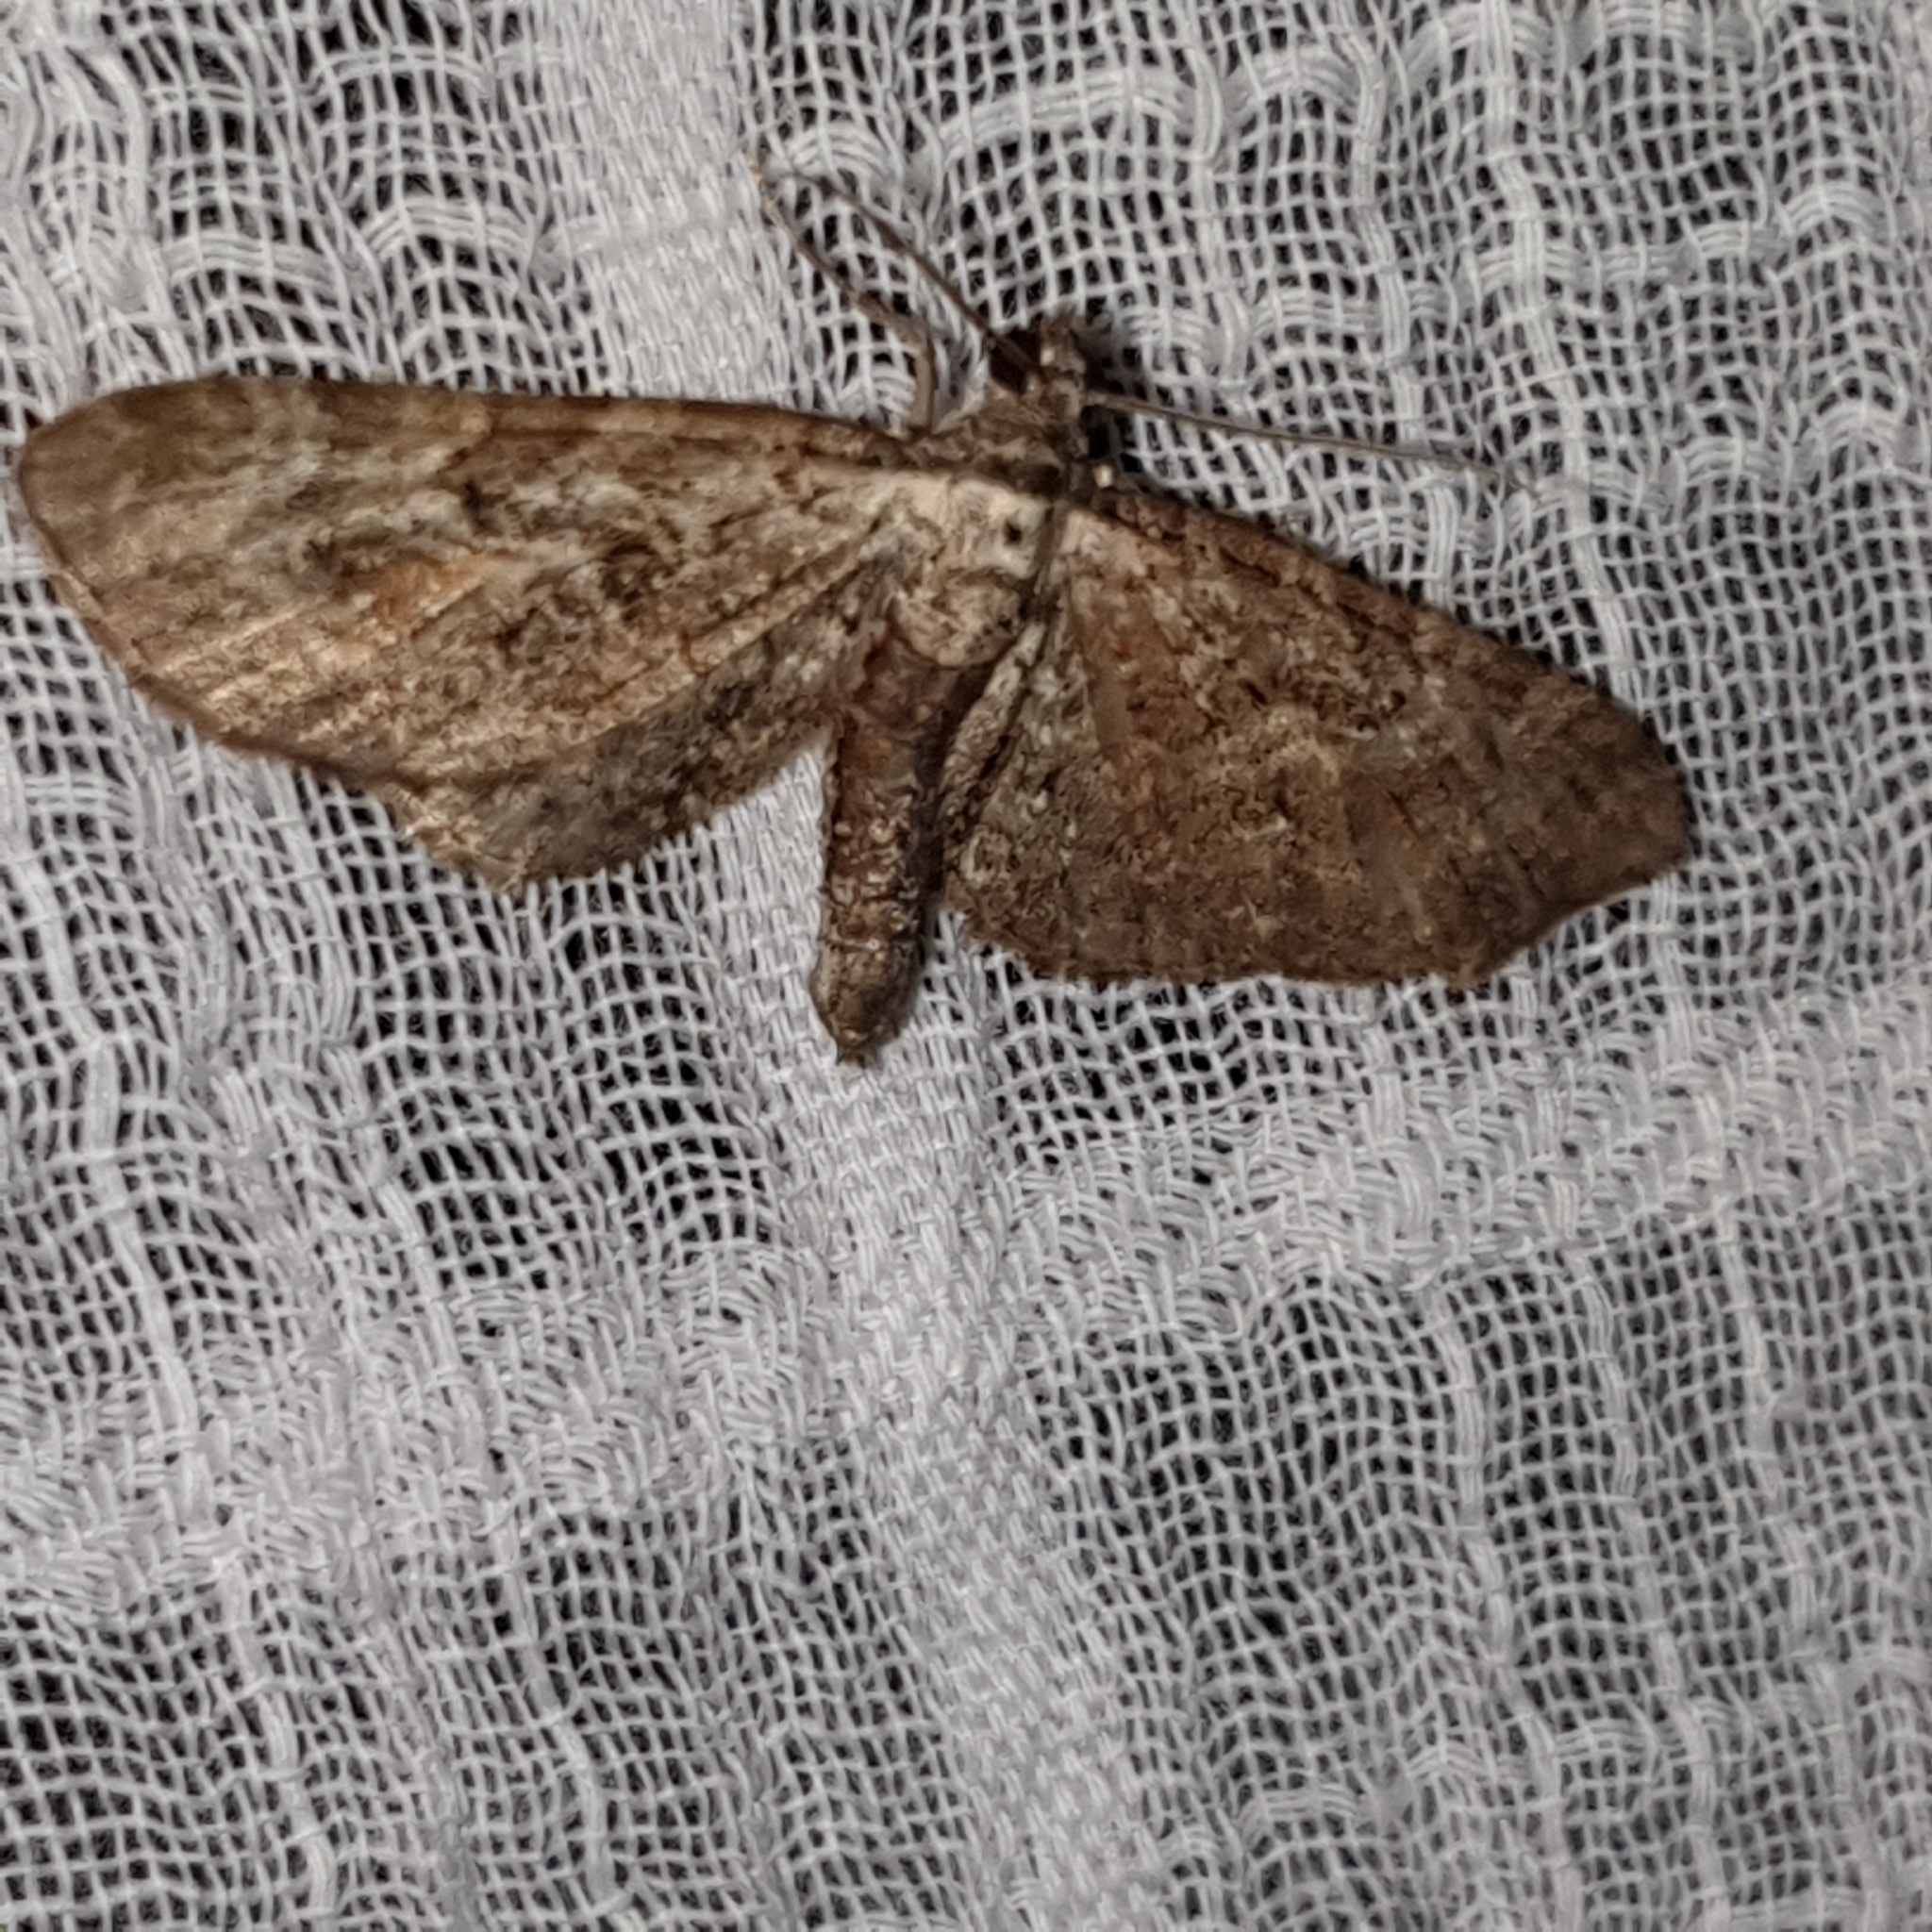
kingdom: Animalia
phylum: Arthropoda
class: Insecta
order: Lepidoptera
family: Geometridae
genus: Eupithecia
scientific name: Eupithecia pusillata
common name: Juniper pug
